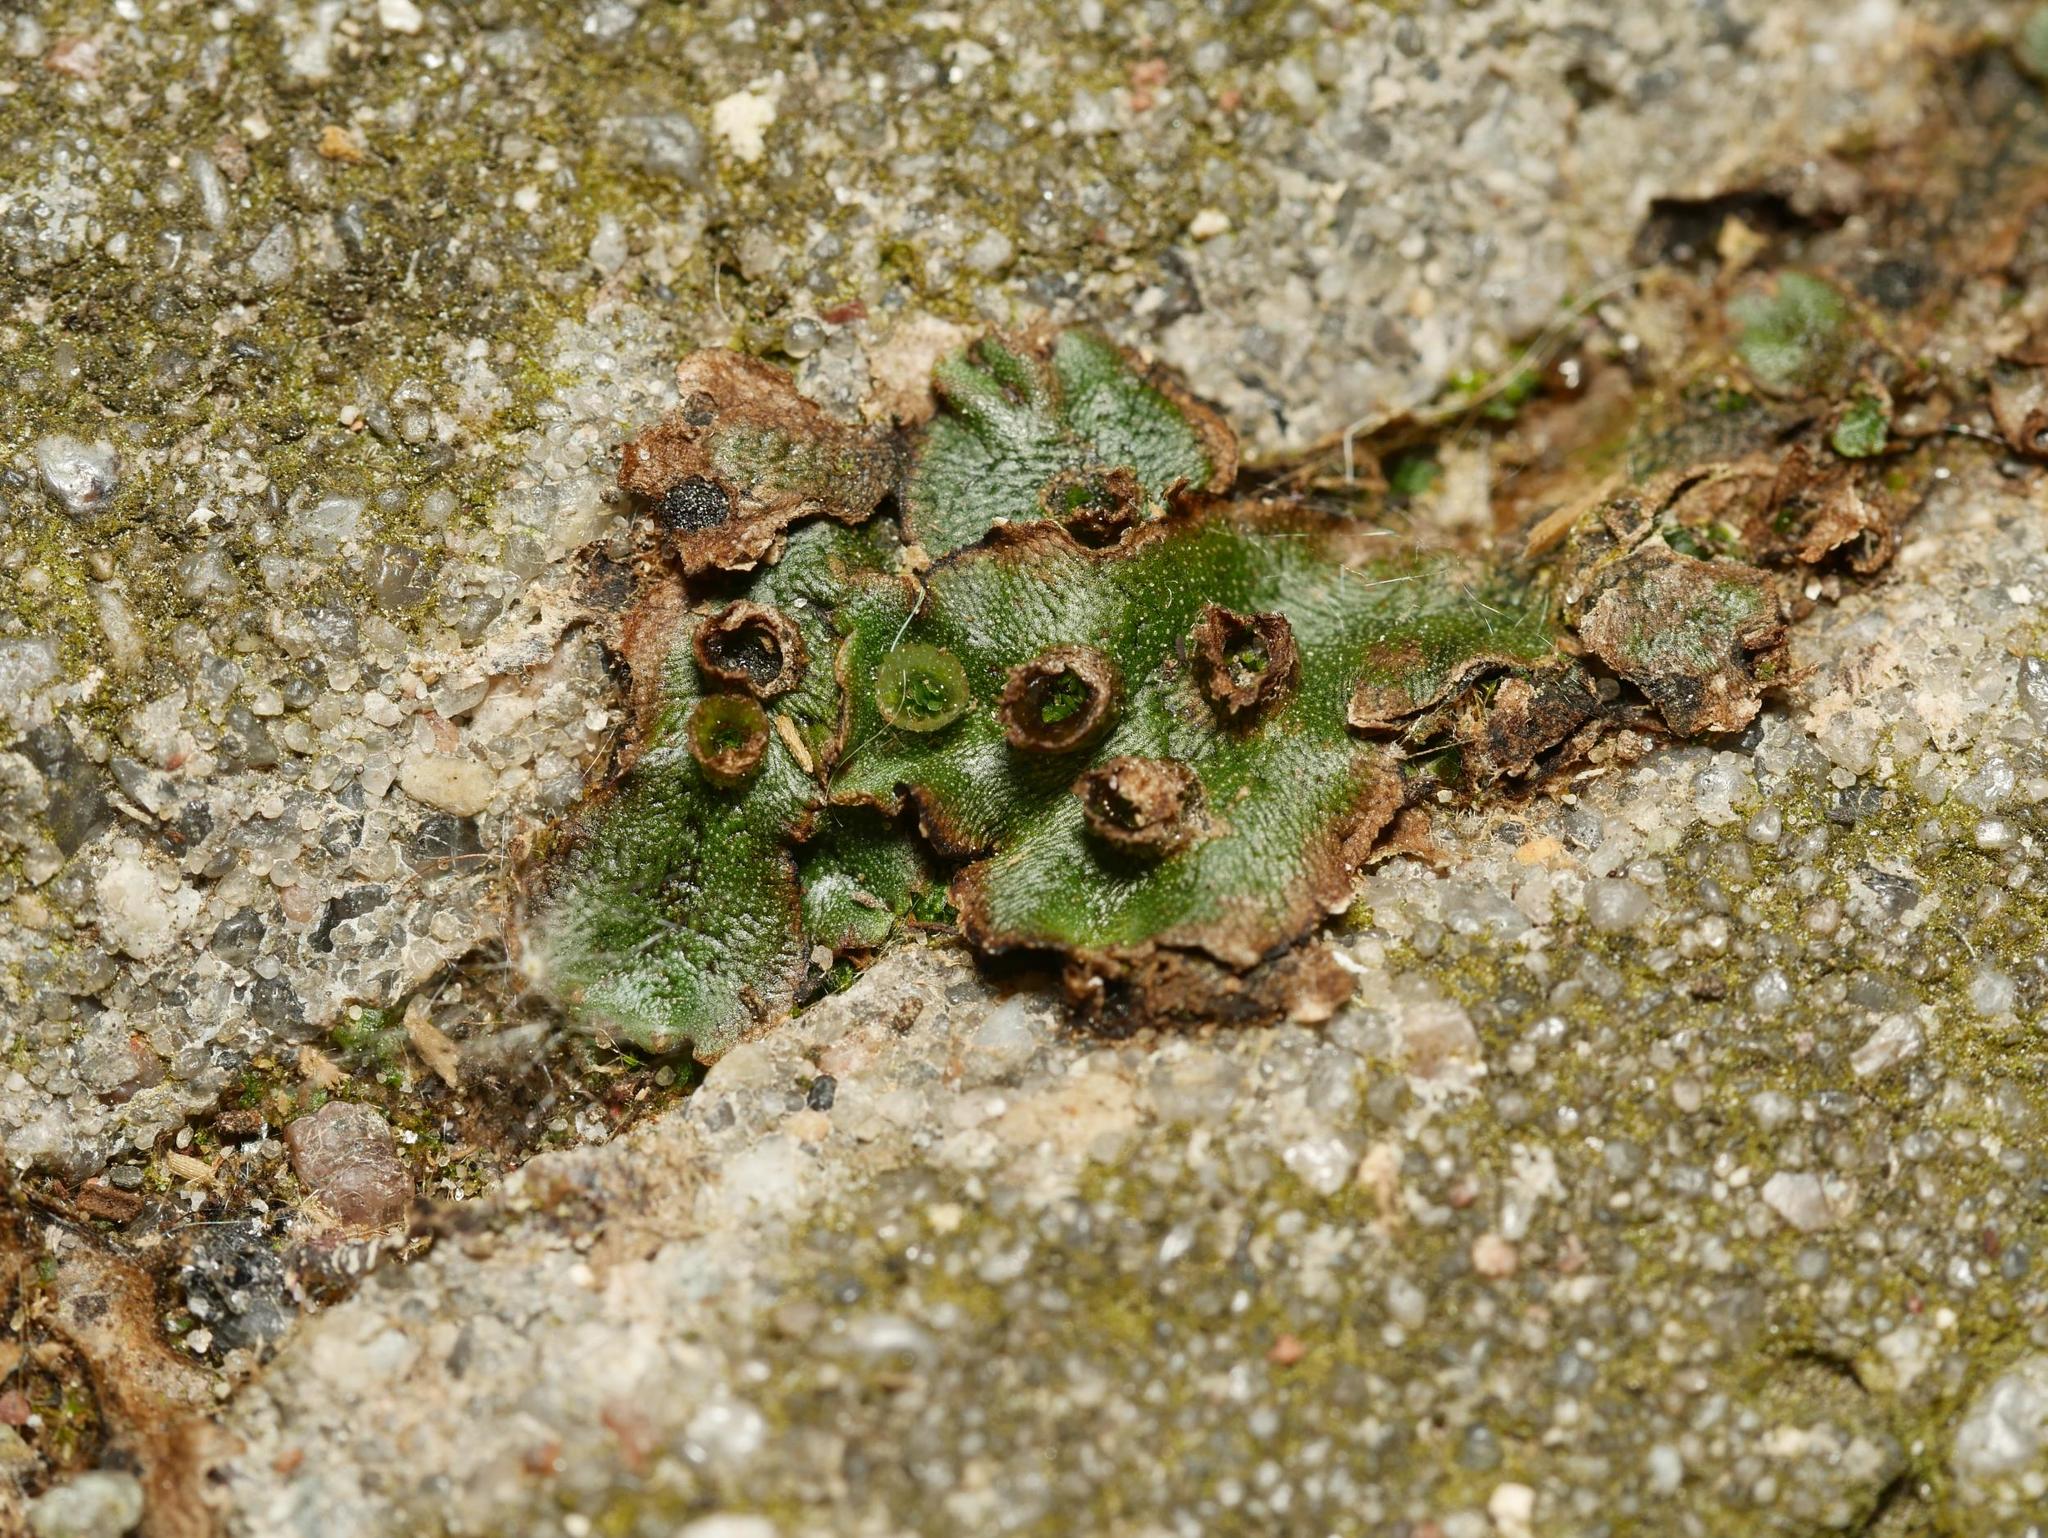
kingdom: Plantae
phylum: Marchantiophyta
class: Marchantiopsida
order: Marchantiales
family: Marchantiaceae
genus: Marchantia
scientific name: Marchantia polymorpha
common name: Common liverwort
